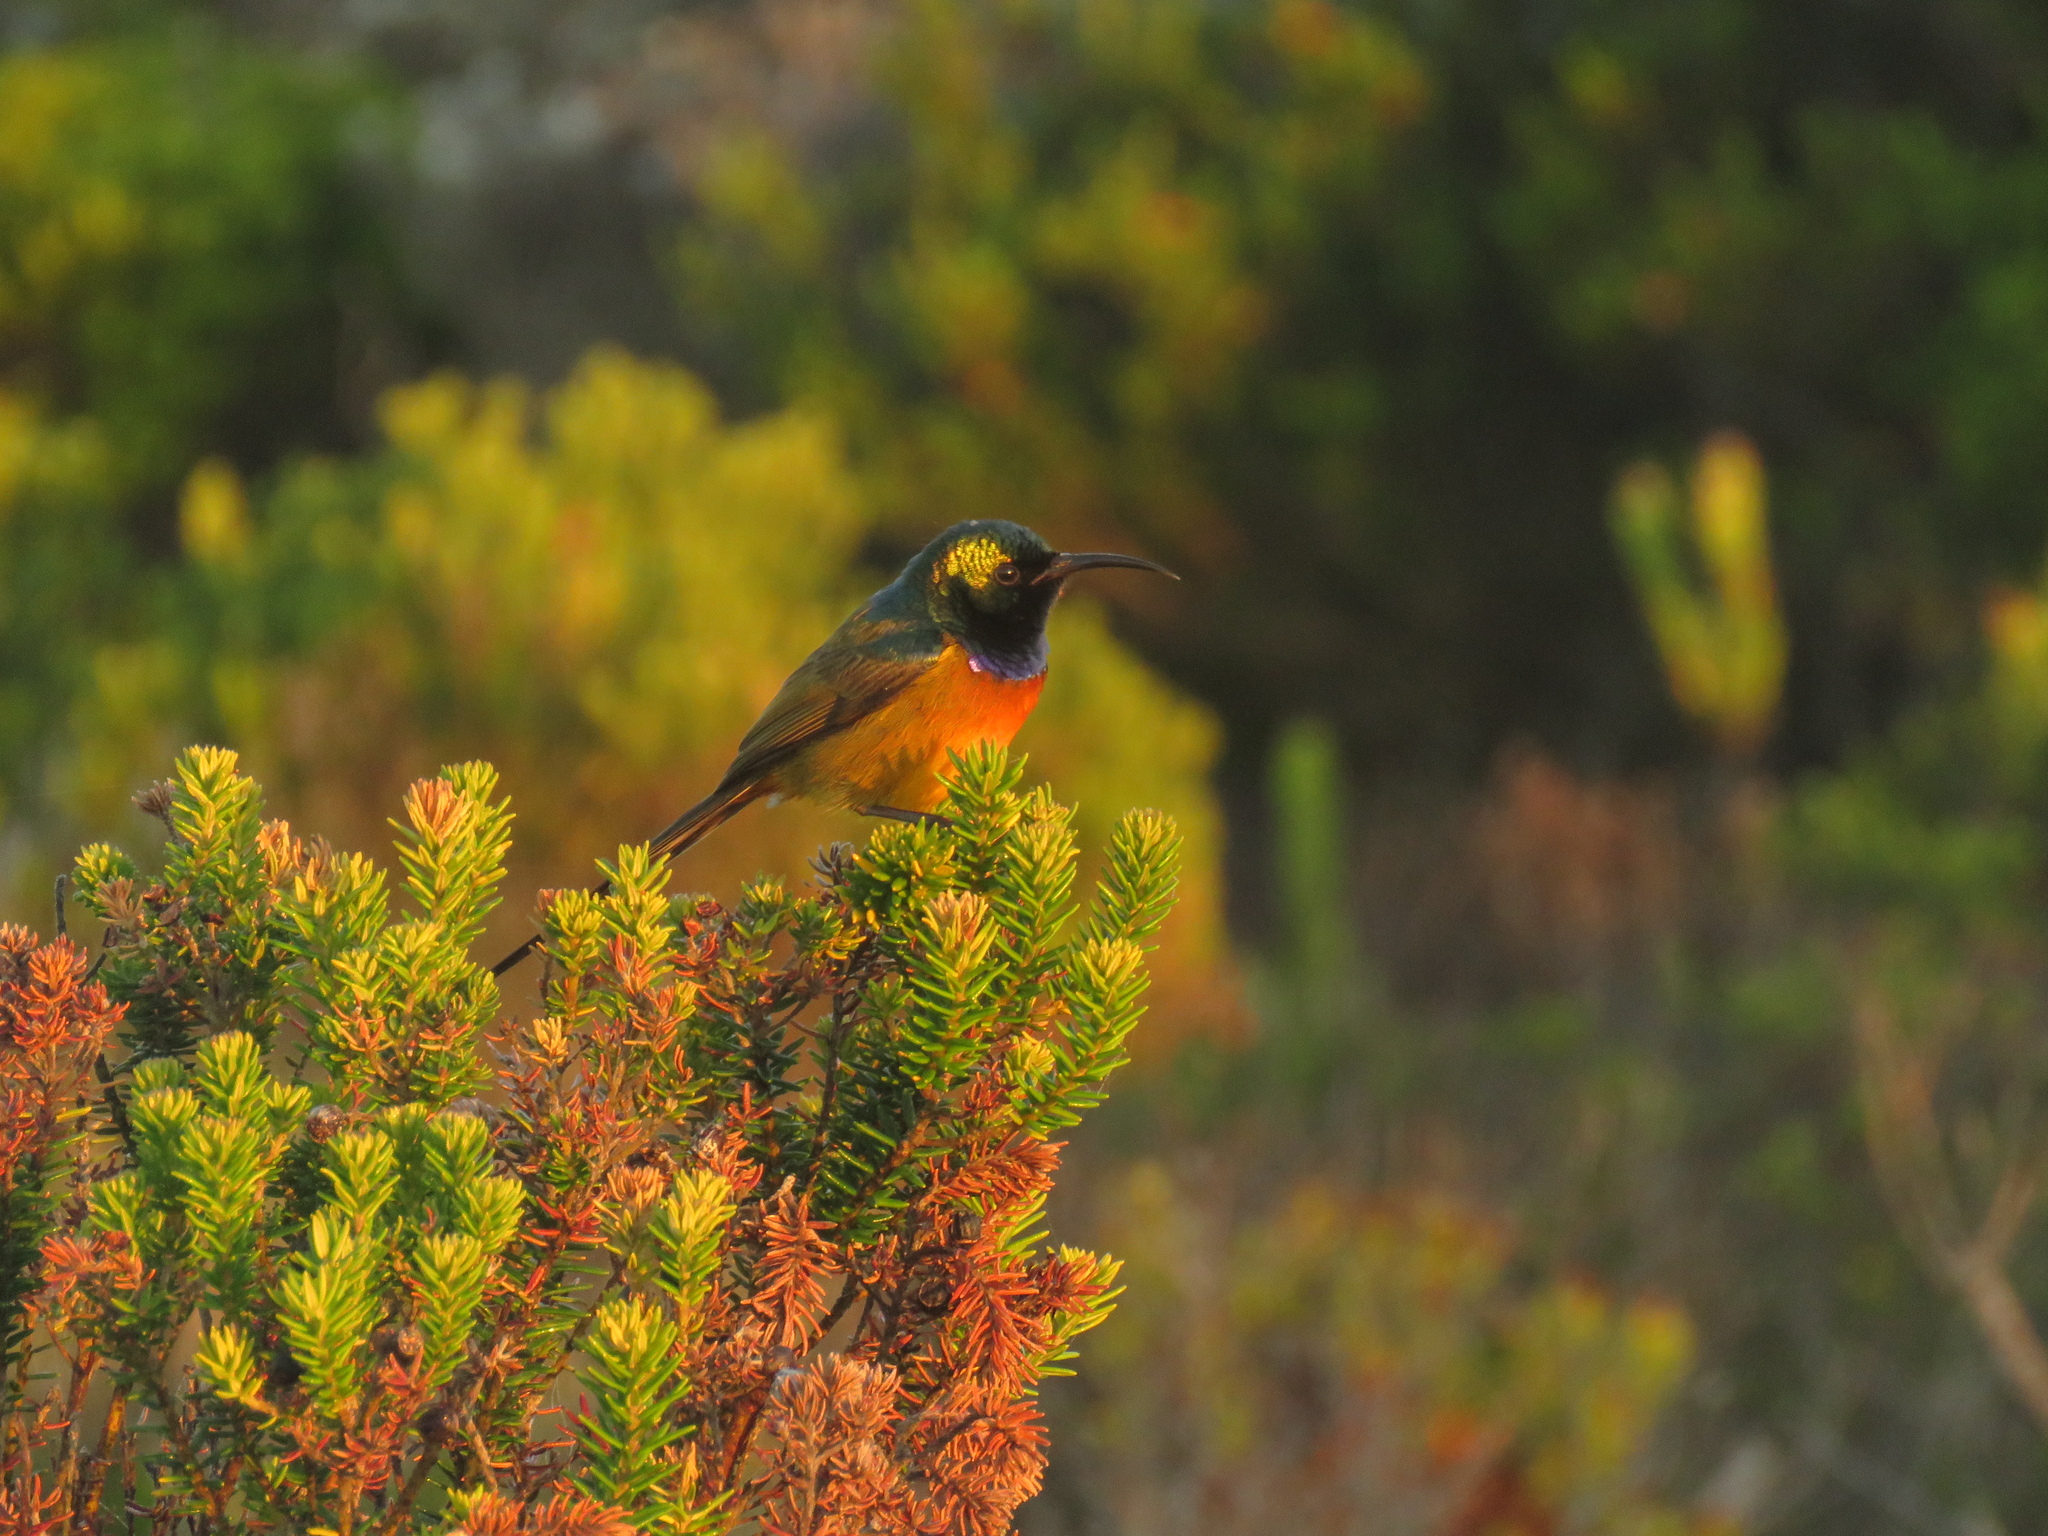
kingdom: Animalia
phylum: Chordata
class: Aves
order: Passeriformes
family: Nectariniidae
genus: Anthobaphes
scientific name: Anthobaphes violacea
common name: Orange-breasted sunbird
